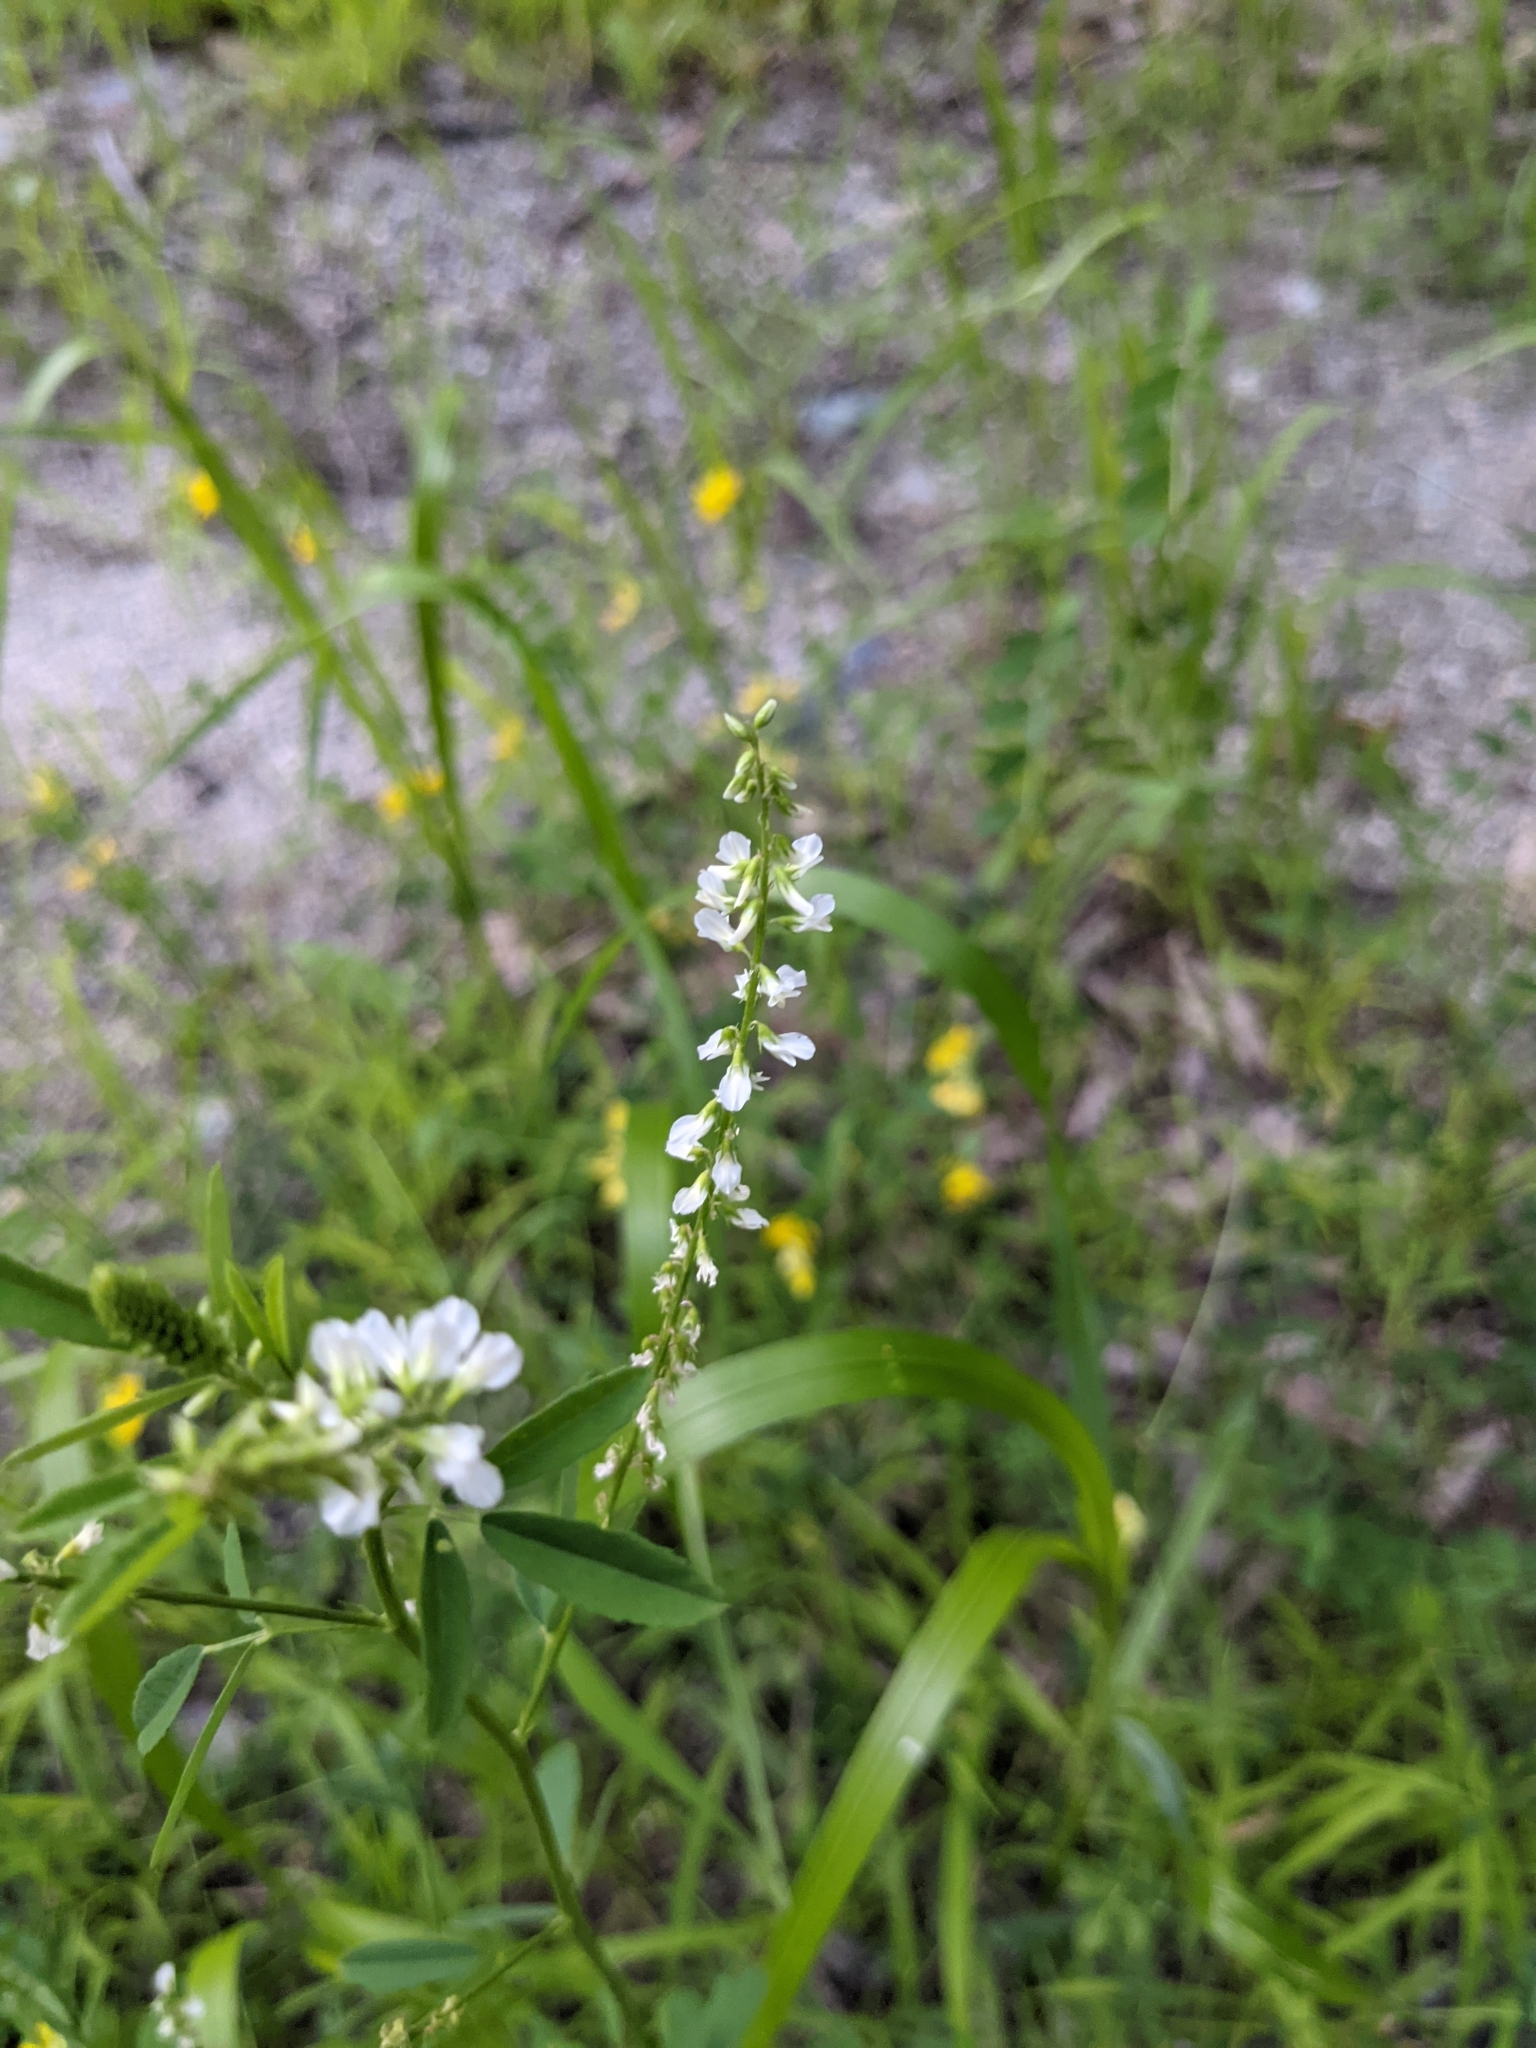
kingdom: Plantae
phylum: Tracheophyta
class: Magnoliopsida
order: Fabales
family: Fabaceae
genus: Melilotus
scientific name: Melilotus albus
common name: White melilot
